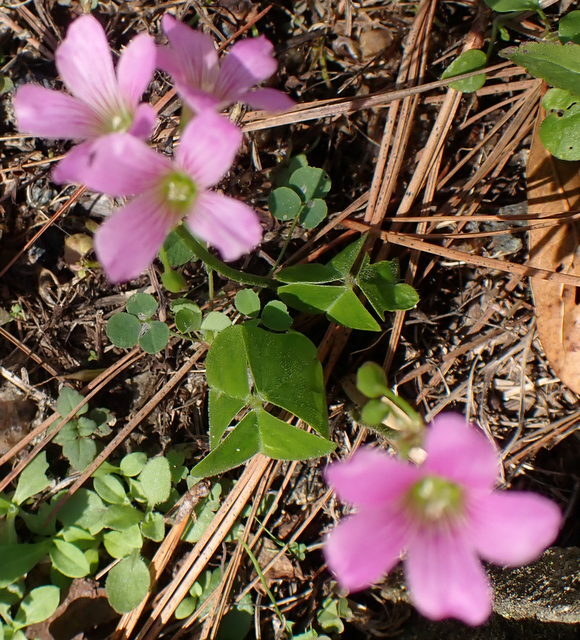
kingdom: Plantae
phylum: Tracheophyta
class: Magnoliopsida
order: Oxalidales
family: Oxalidaceae
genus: Oxalis
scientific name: Oxalis debilis
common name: Large-flowered pink-sorrel
